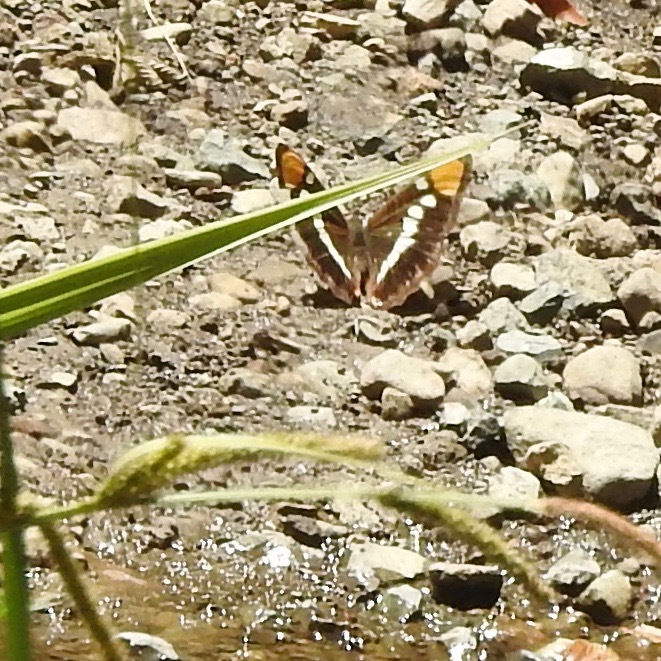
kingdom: Animalia
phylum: Arthropoda
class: Insecta
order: Lepidoptera
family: Nymphalidae
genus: Limenitis
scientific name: Limenitis bredowii
